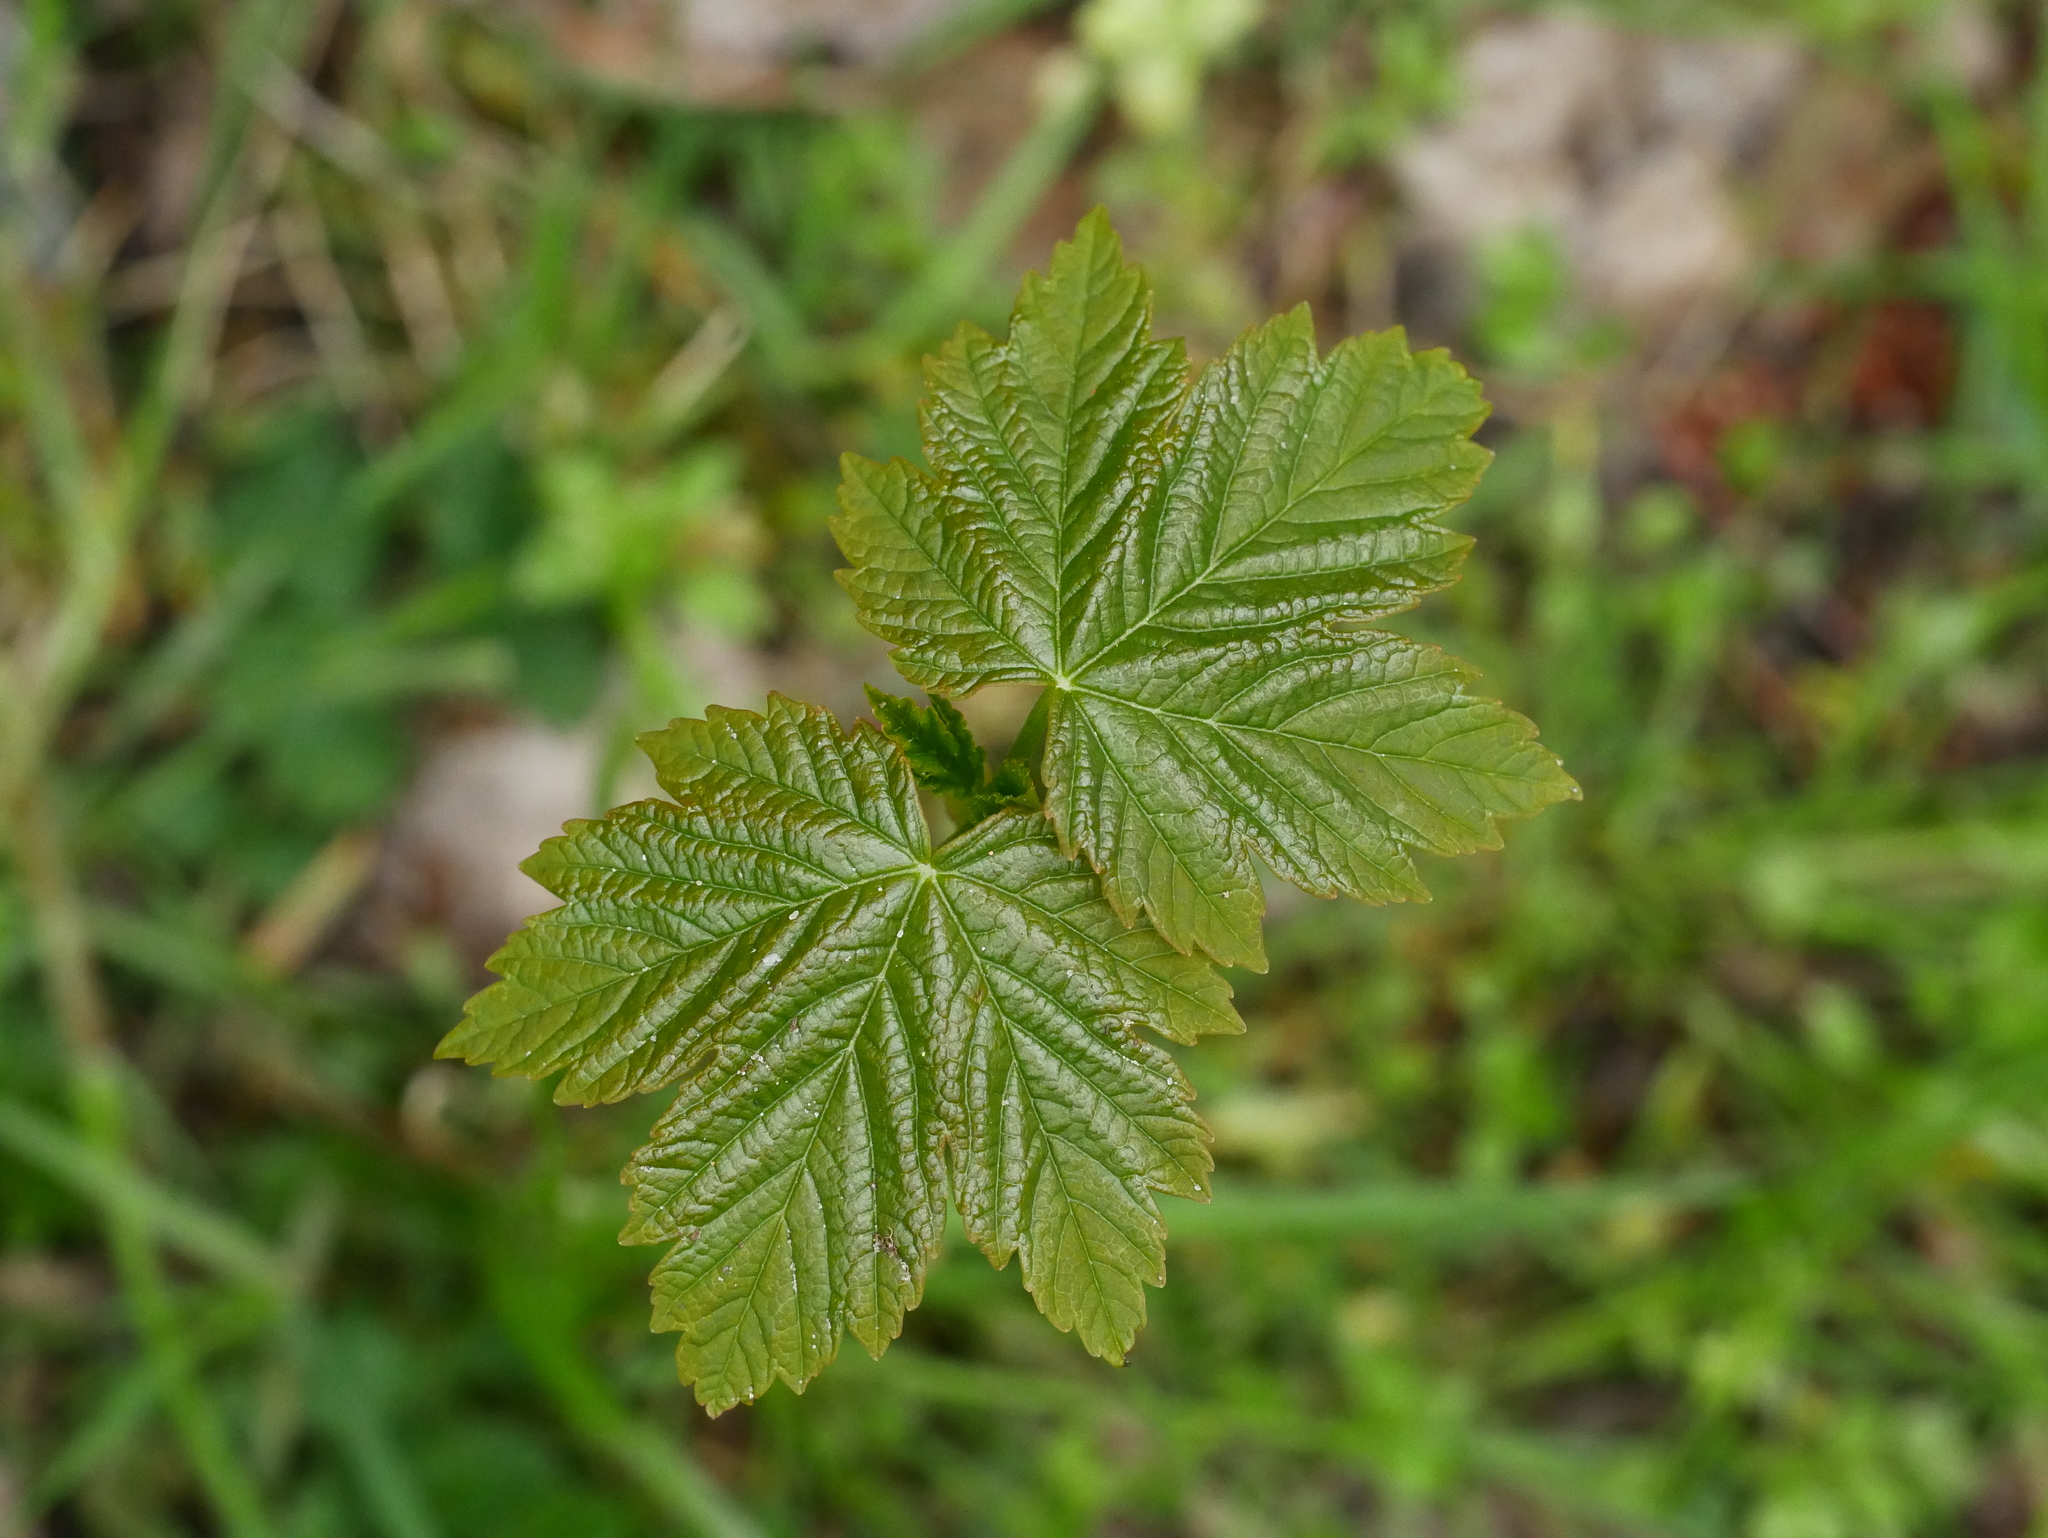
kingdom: Plantae
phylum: Tracheophyta
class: Magnoliopsida
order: Sapindales
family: Sapindaceae
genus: Acer
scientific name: Acer pseudoplatanus
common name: Sycamore
